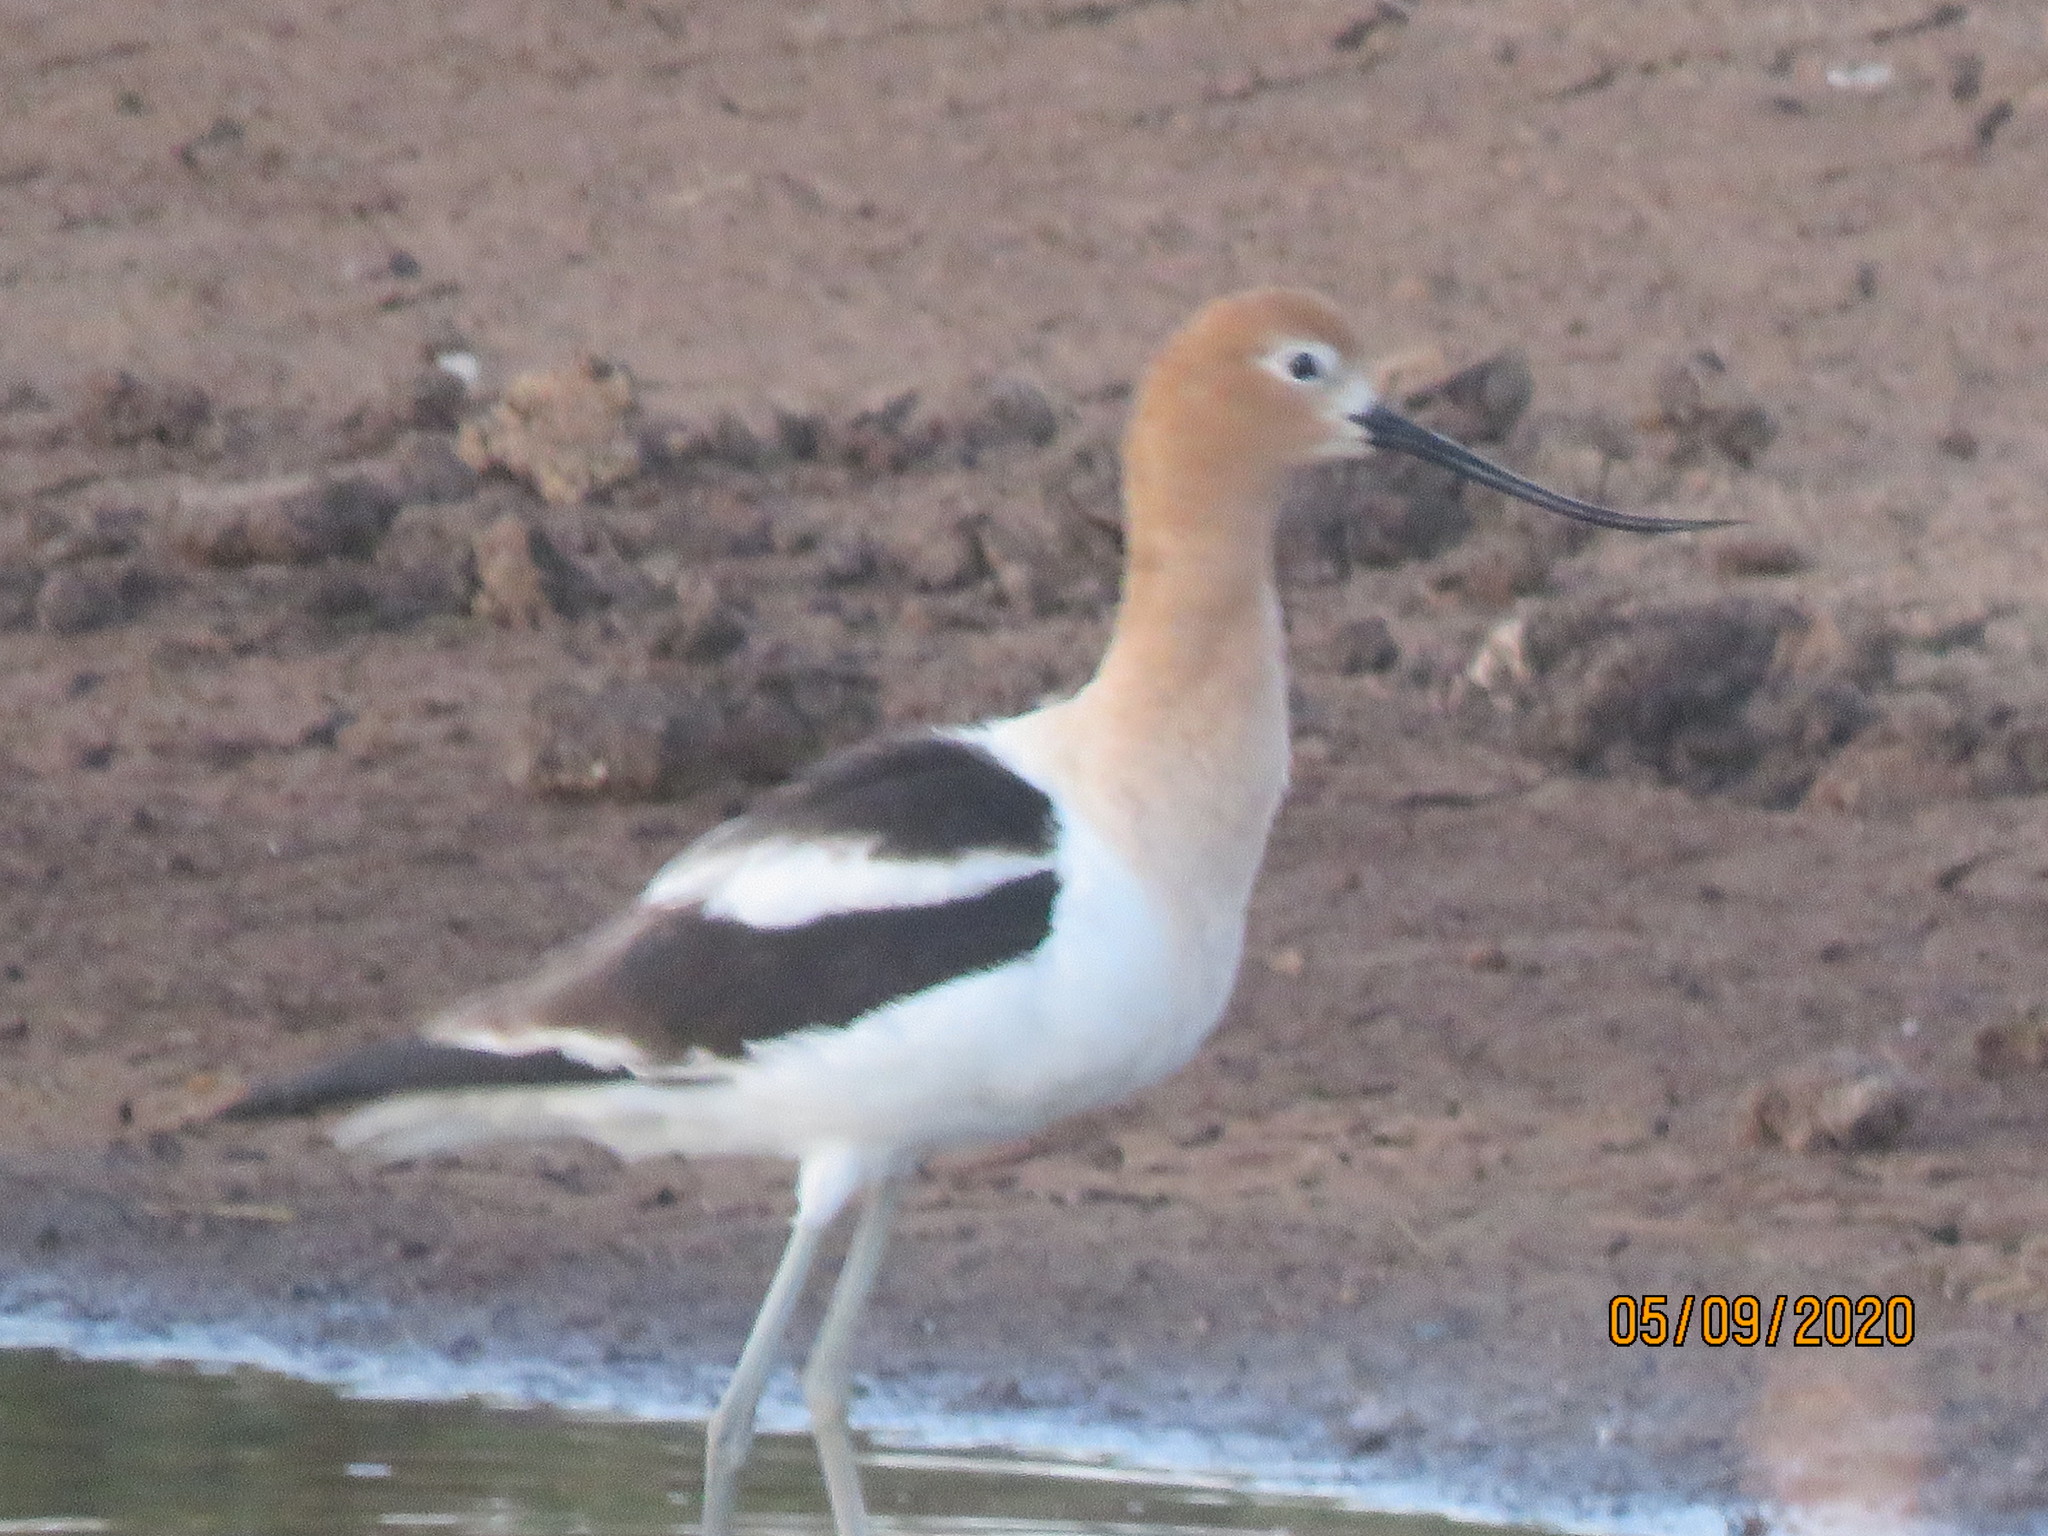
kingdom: Animalia
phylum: Chordata
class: Aves
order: Charadriiformes
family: Recurvirostridae
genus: Recurvirostra
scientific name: Recurvirostra americana
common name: American avocet
